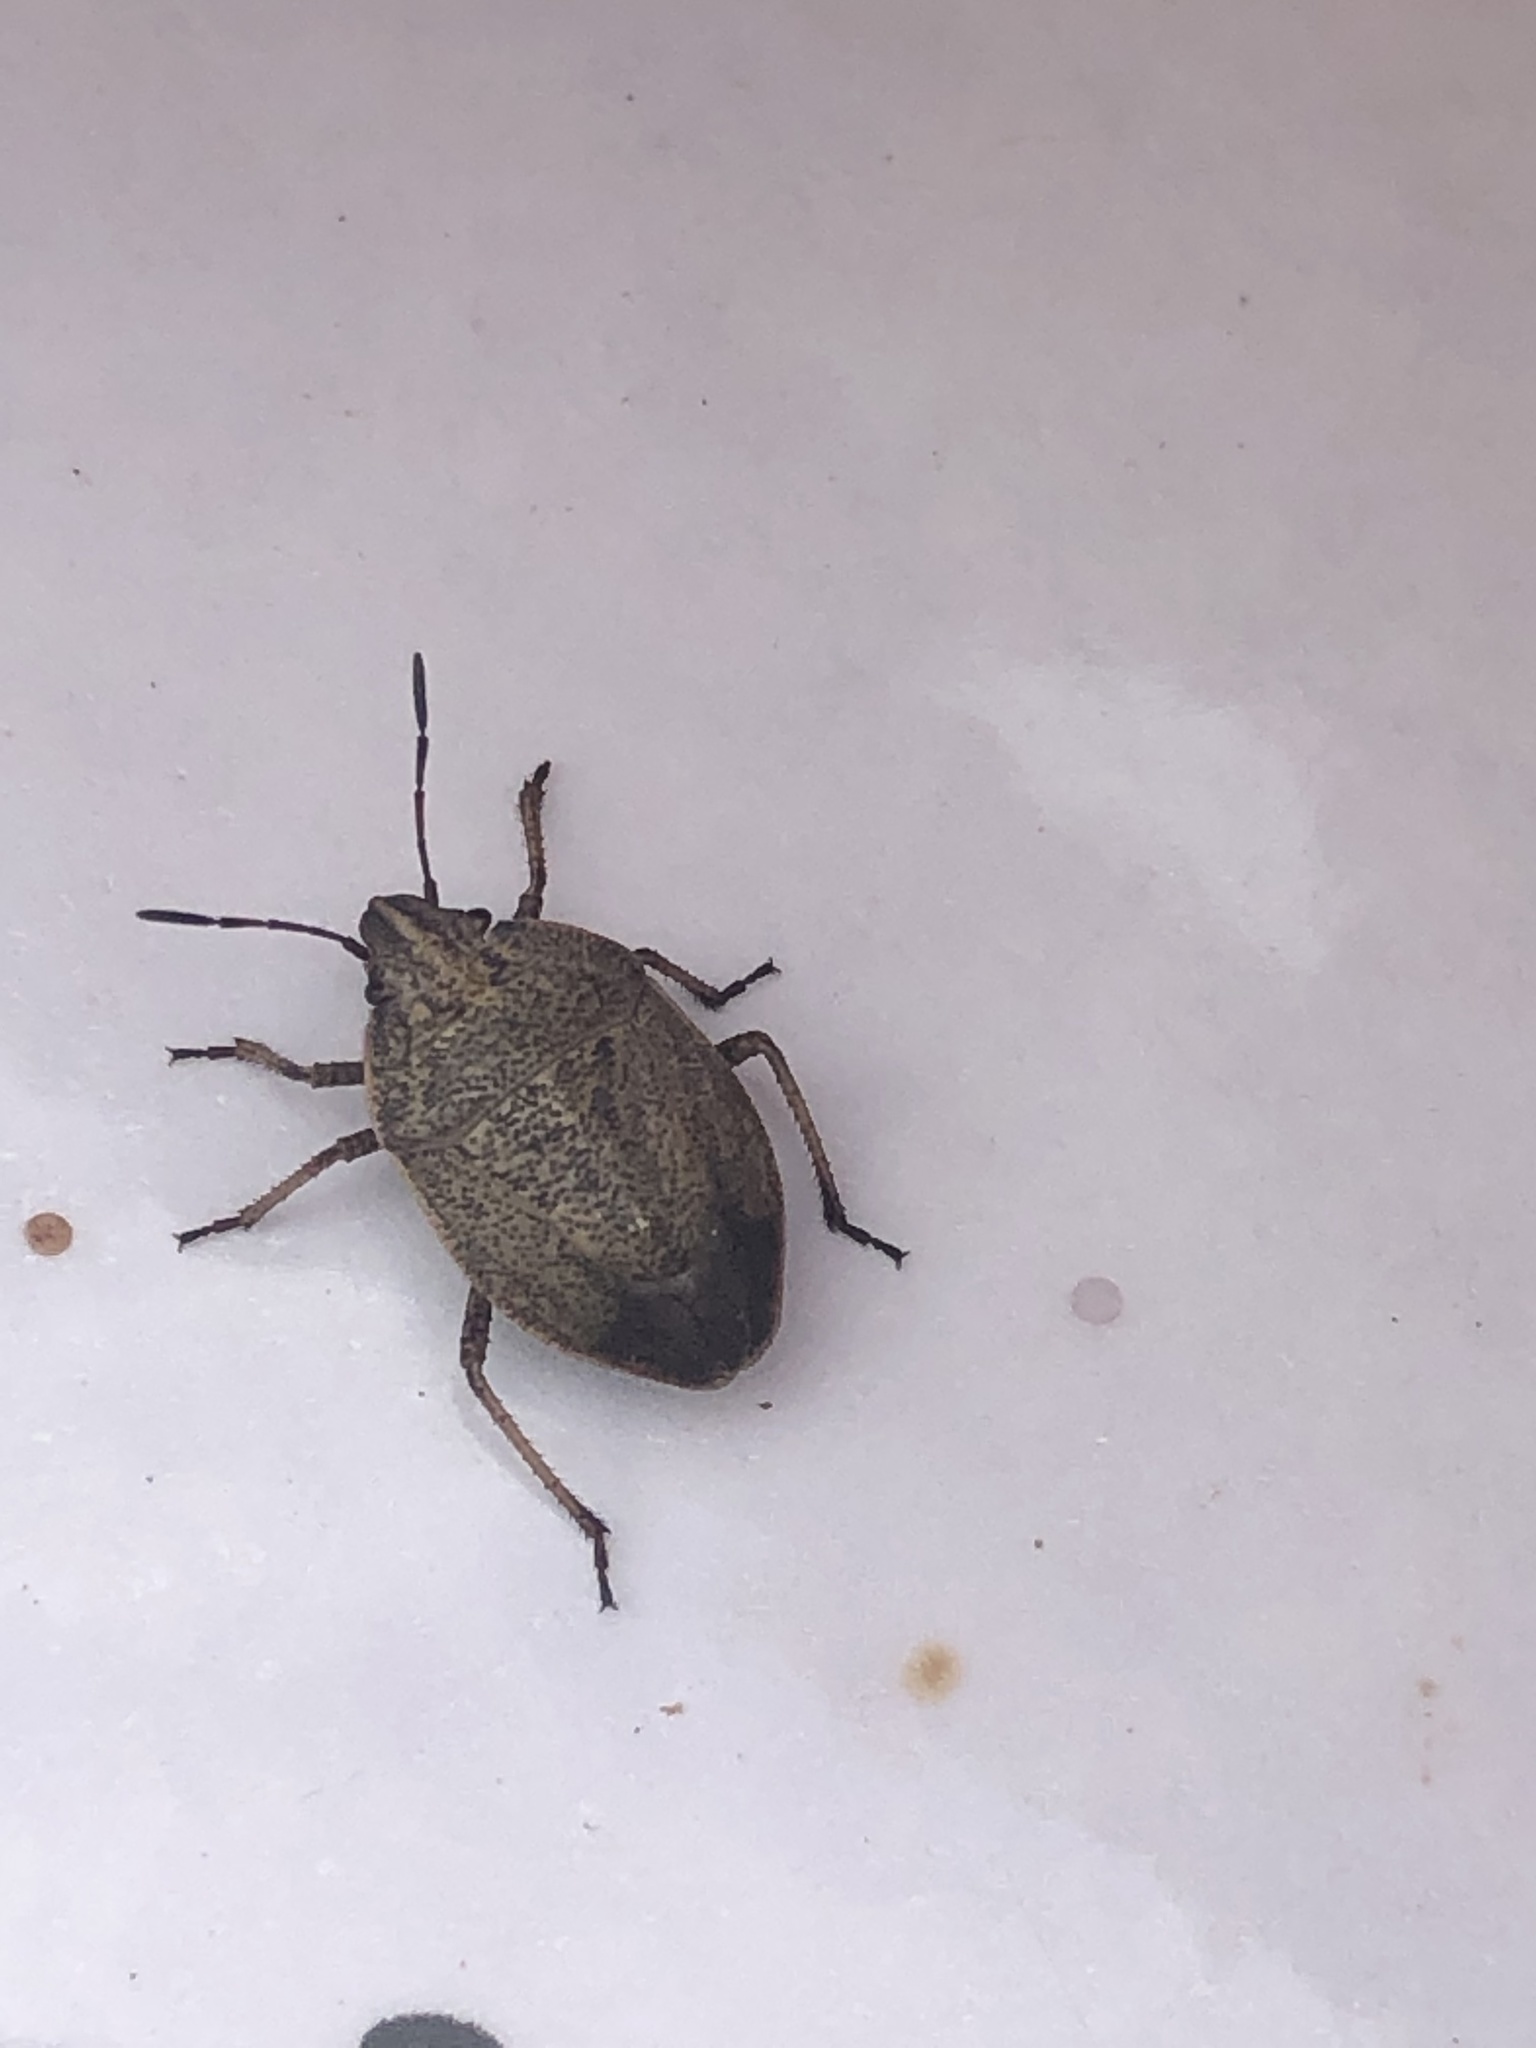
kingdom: Animalia
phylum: Arthropoda
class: Insecta
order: Hemiptera
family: Pentatomidae
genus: Coenus
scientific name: Coenus delius
